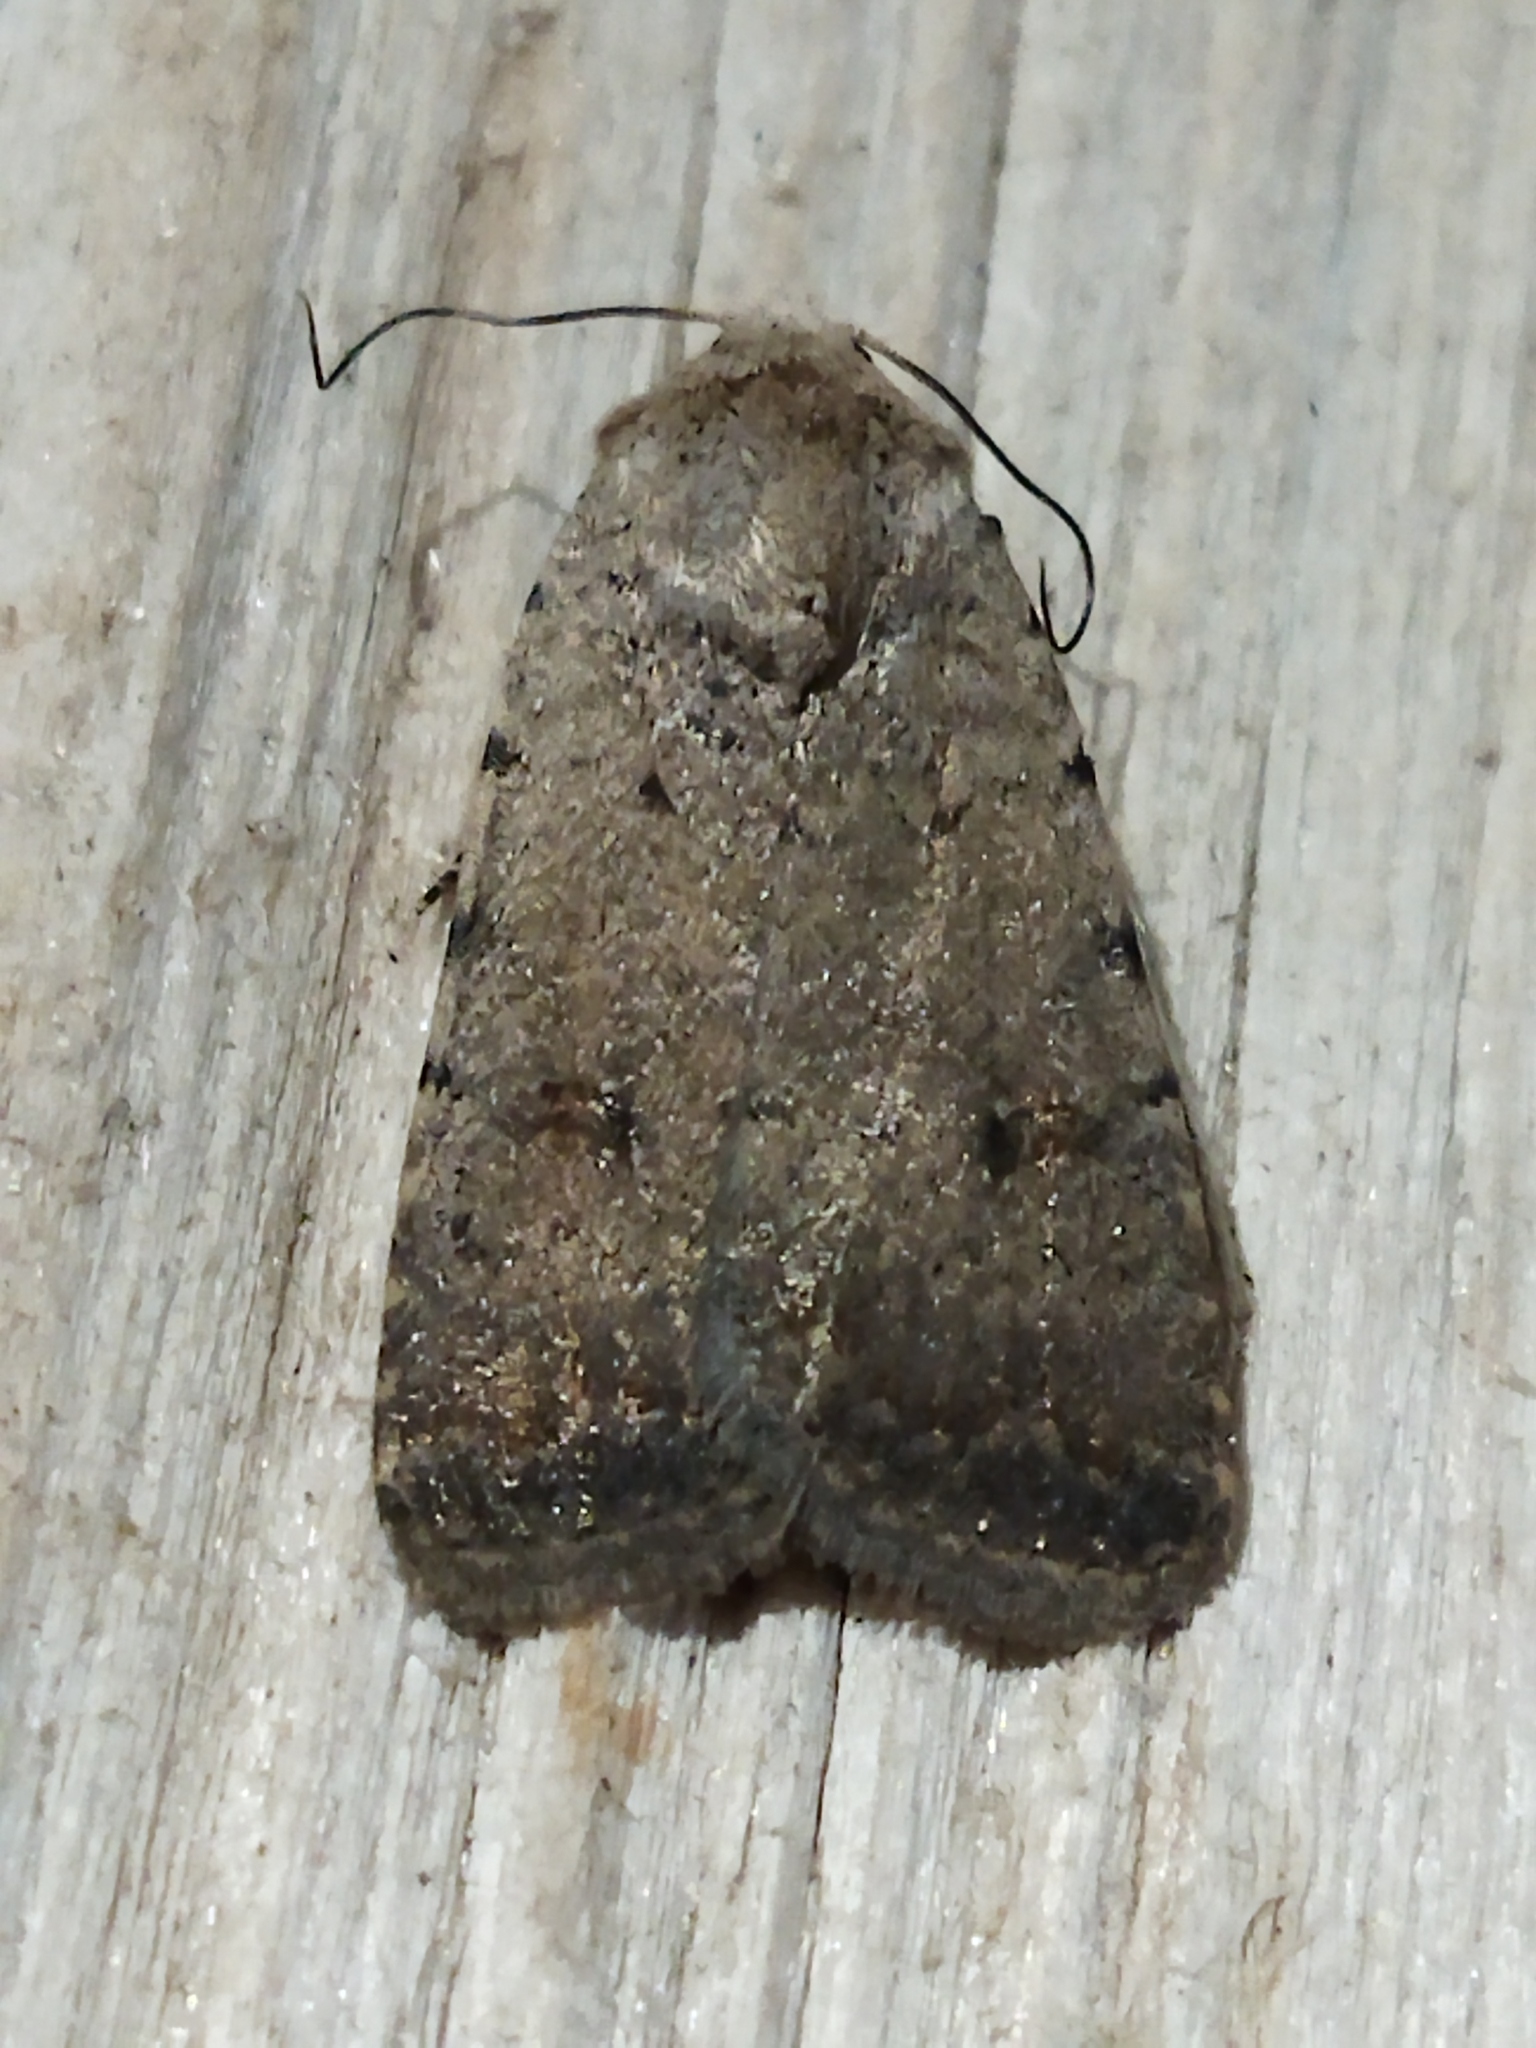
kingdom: Animalia
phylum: Arthropoda
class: Insecta
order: Lepidoptera
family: Noctuidae
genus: Caradrina
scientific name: Caradrina clavipalpis
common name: Pale mottled willow
